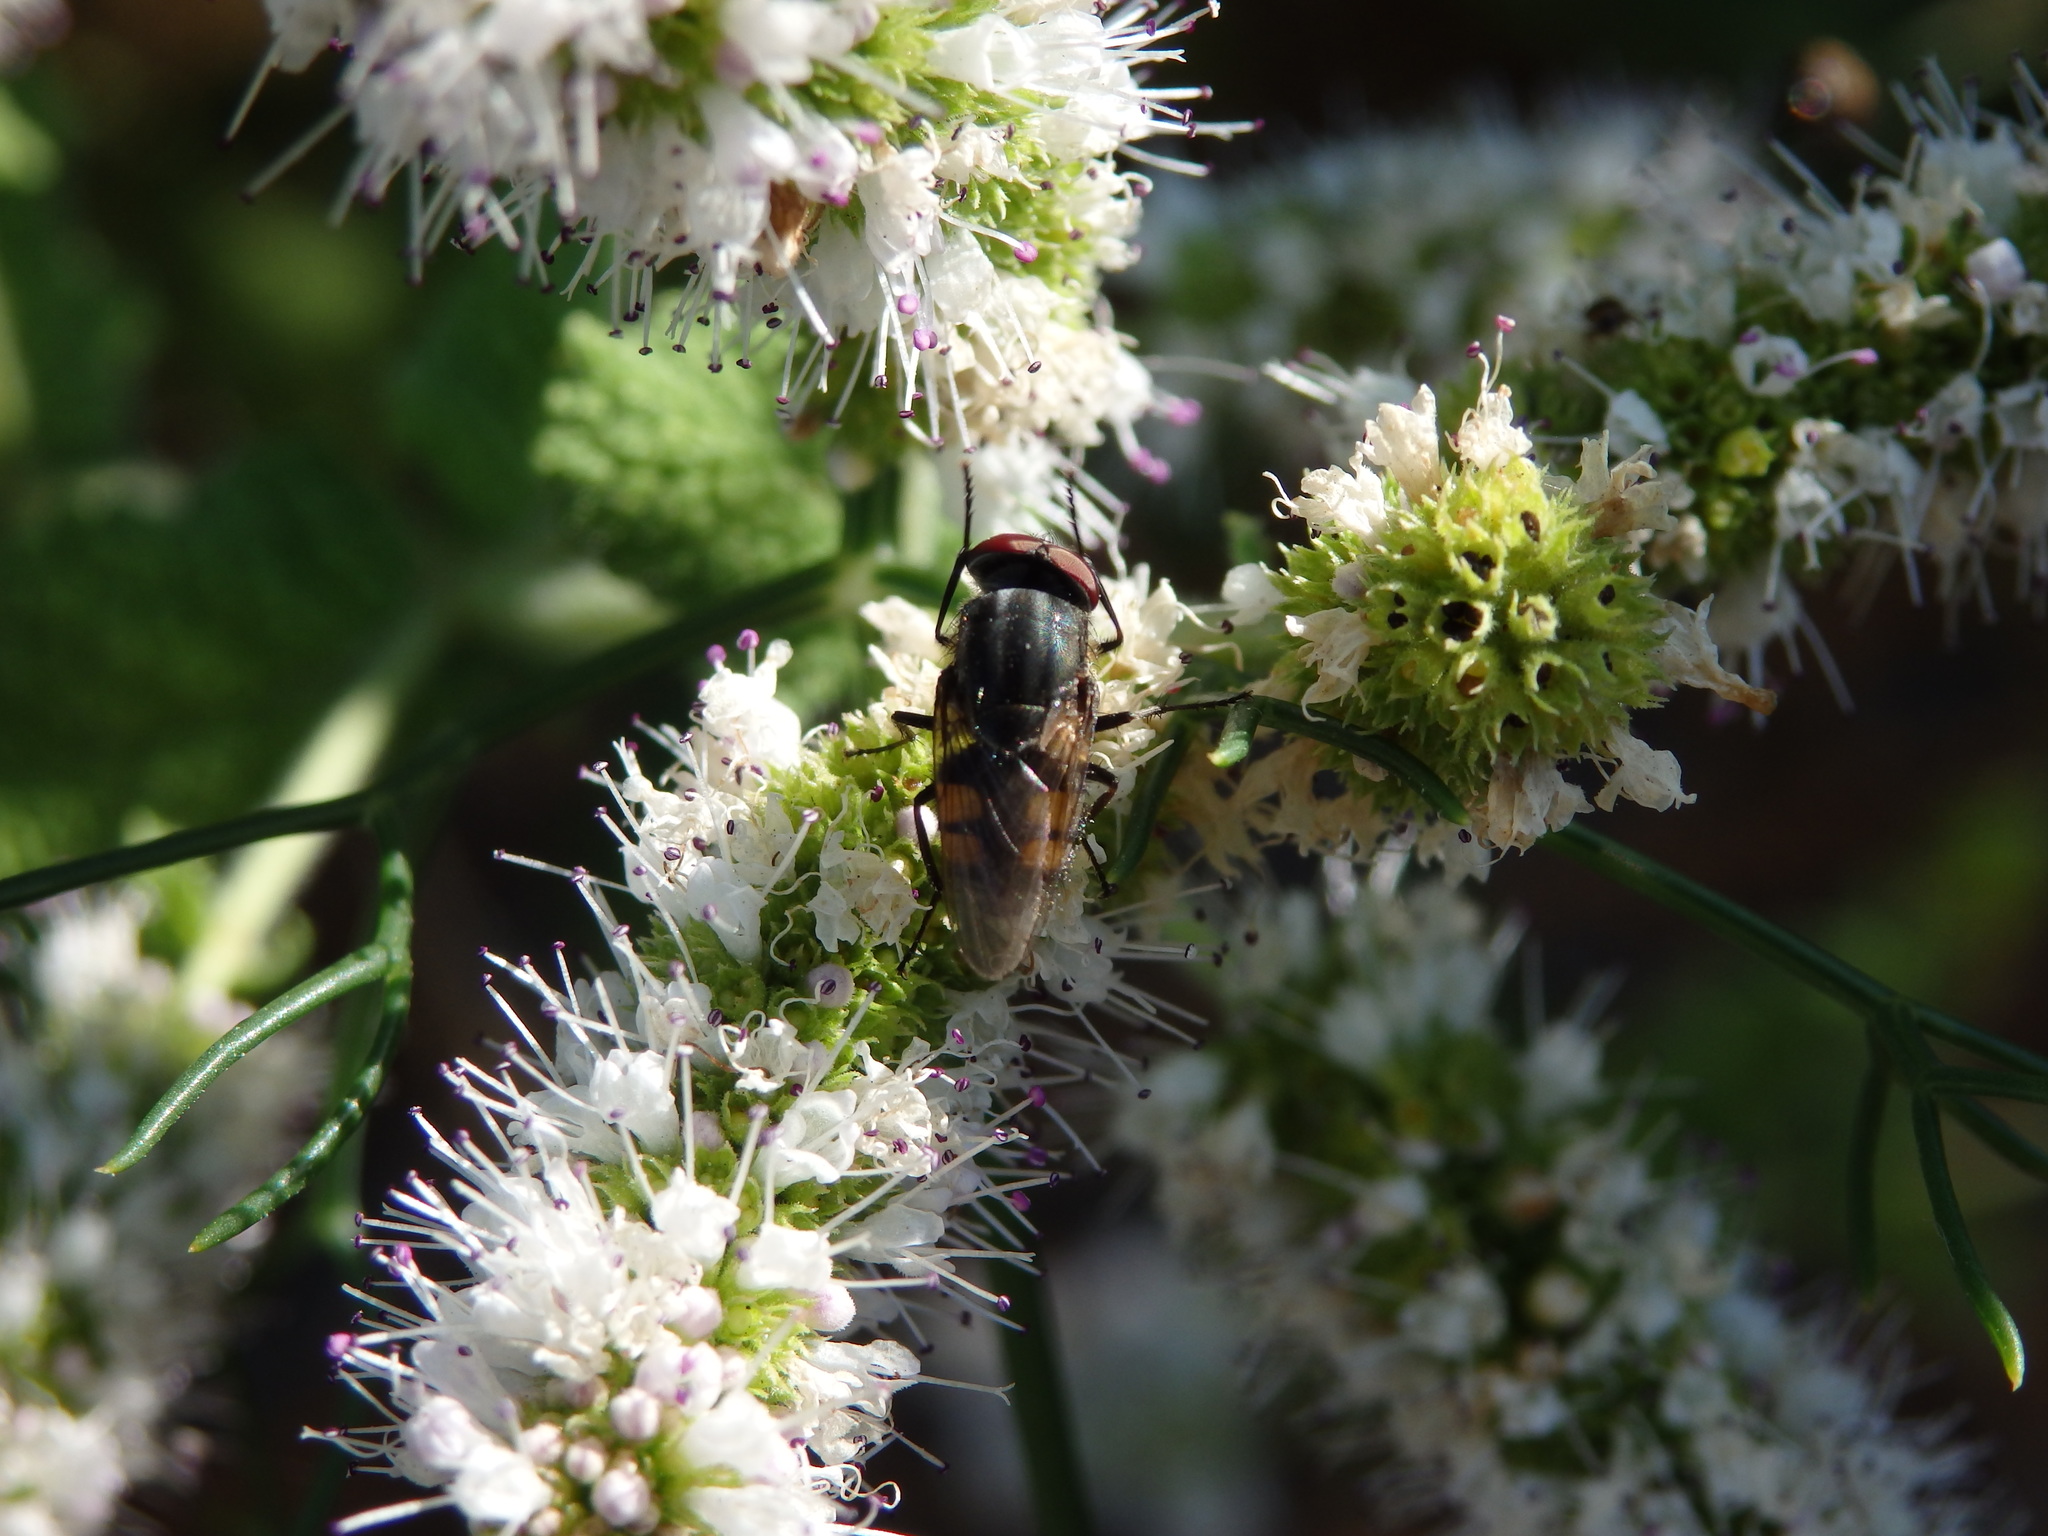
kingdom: Animalia
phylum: Arthropoda
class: Insecta
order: Diptera
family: Calliphoridae
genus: Stomorhina
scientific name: Stomorhina lunata
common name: Locust blowfly
